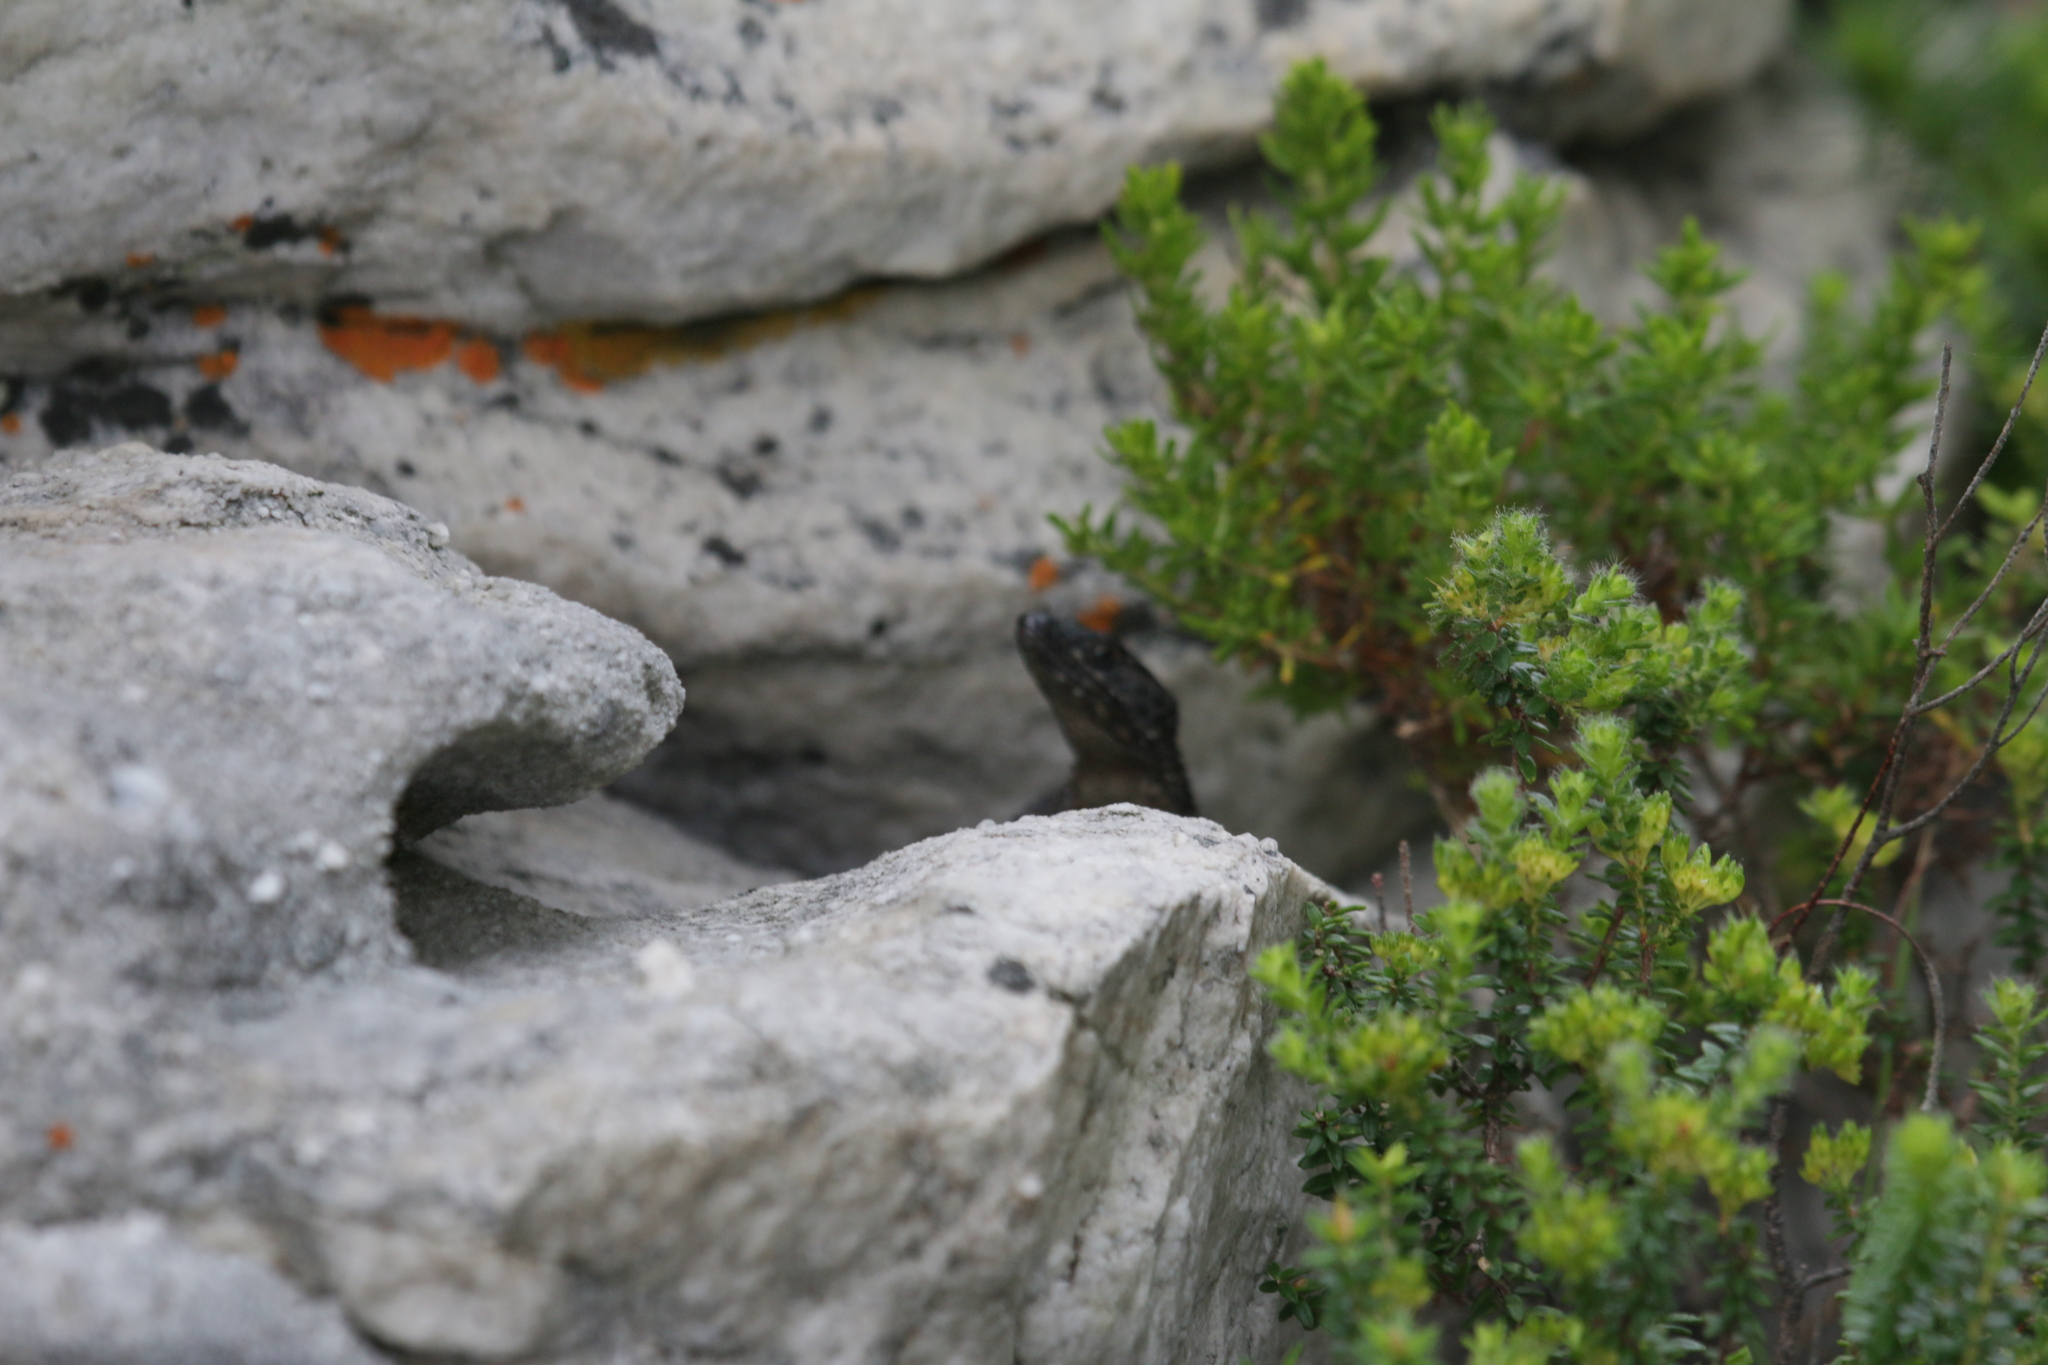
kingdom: Animalia
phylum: Chordata
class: Squamata
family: Cordylidae
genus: Cordylus
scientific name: Cordylus niger
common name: Black girdled lizard
